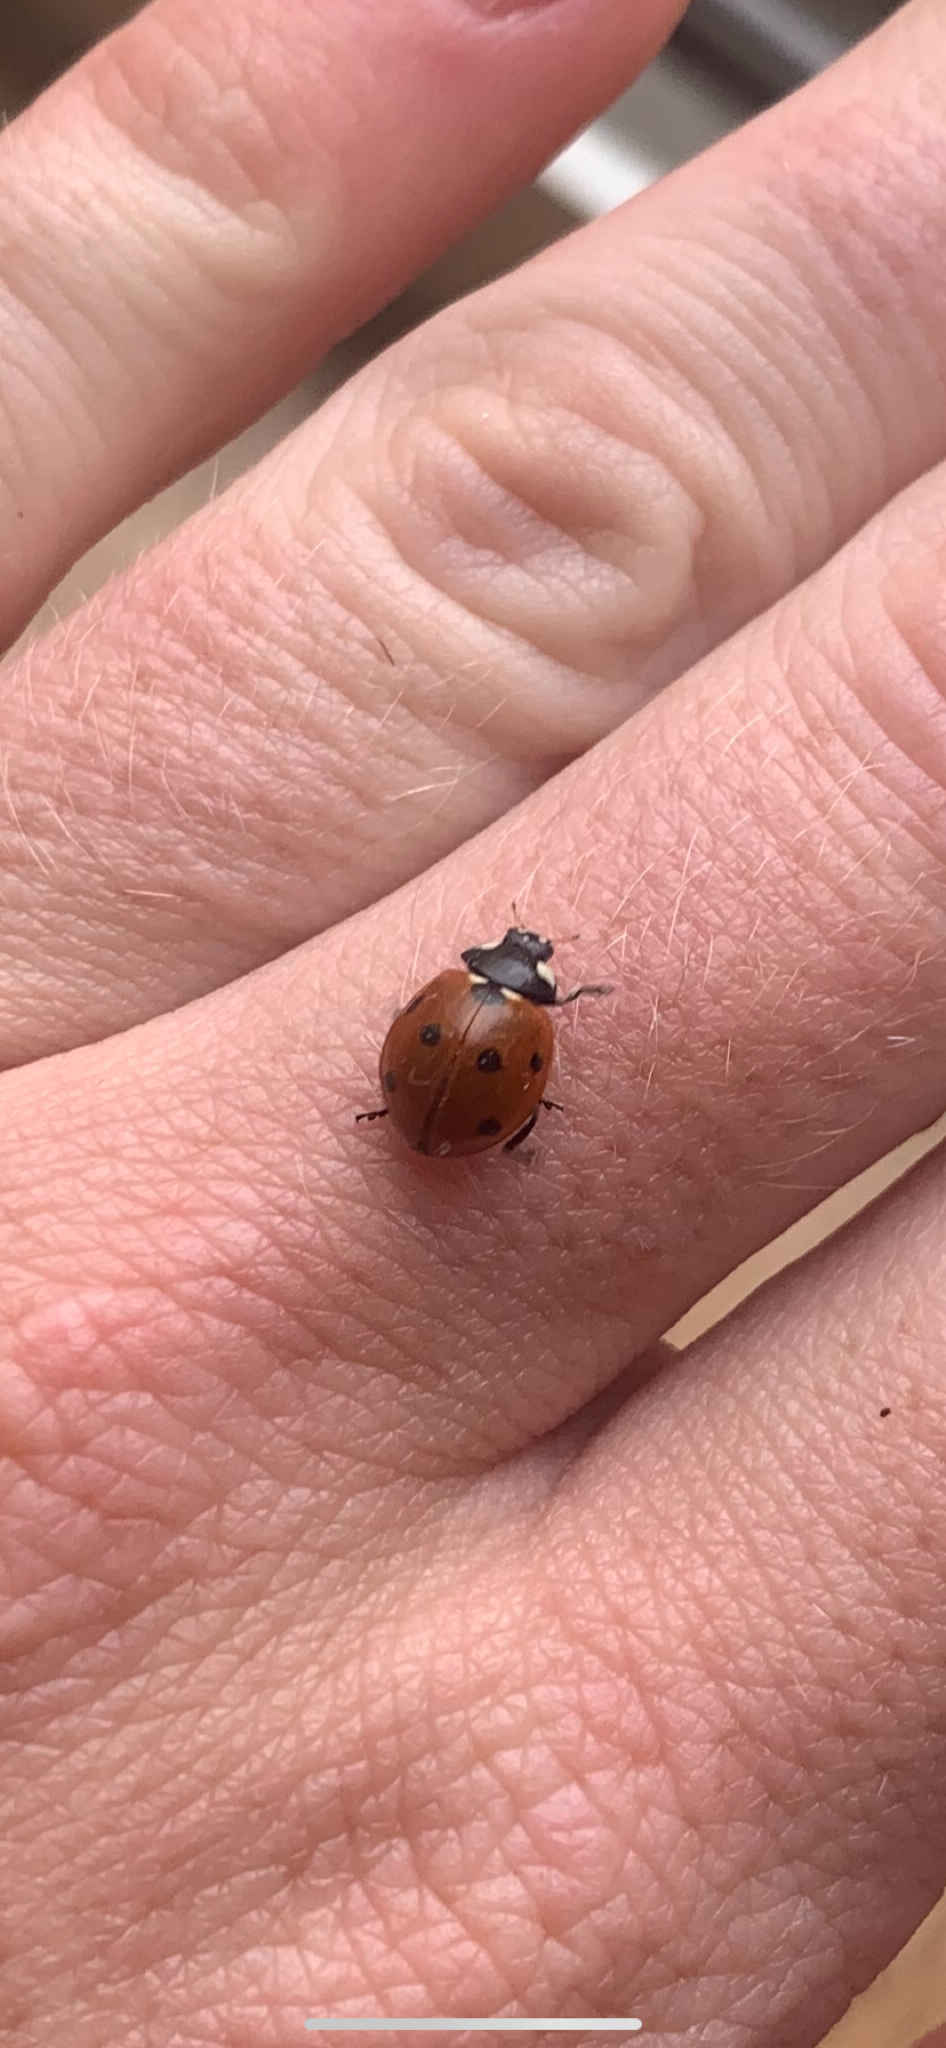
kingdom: Animalia
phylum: Arthropoda
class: Insecta
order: Coleoptera
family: Coccinellidae
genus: Coccinella
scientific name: Coccinella septempunctata
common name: Sevenspotted lady beetle
